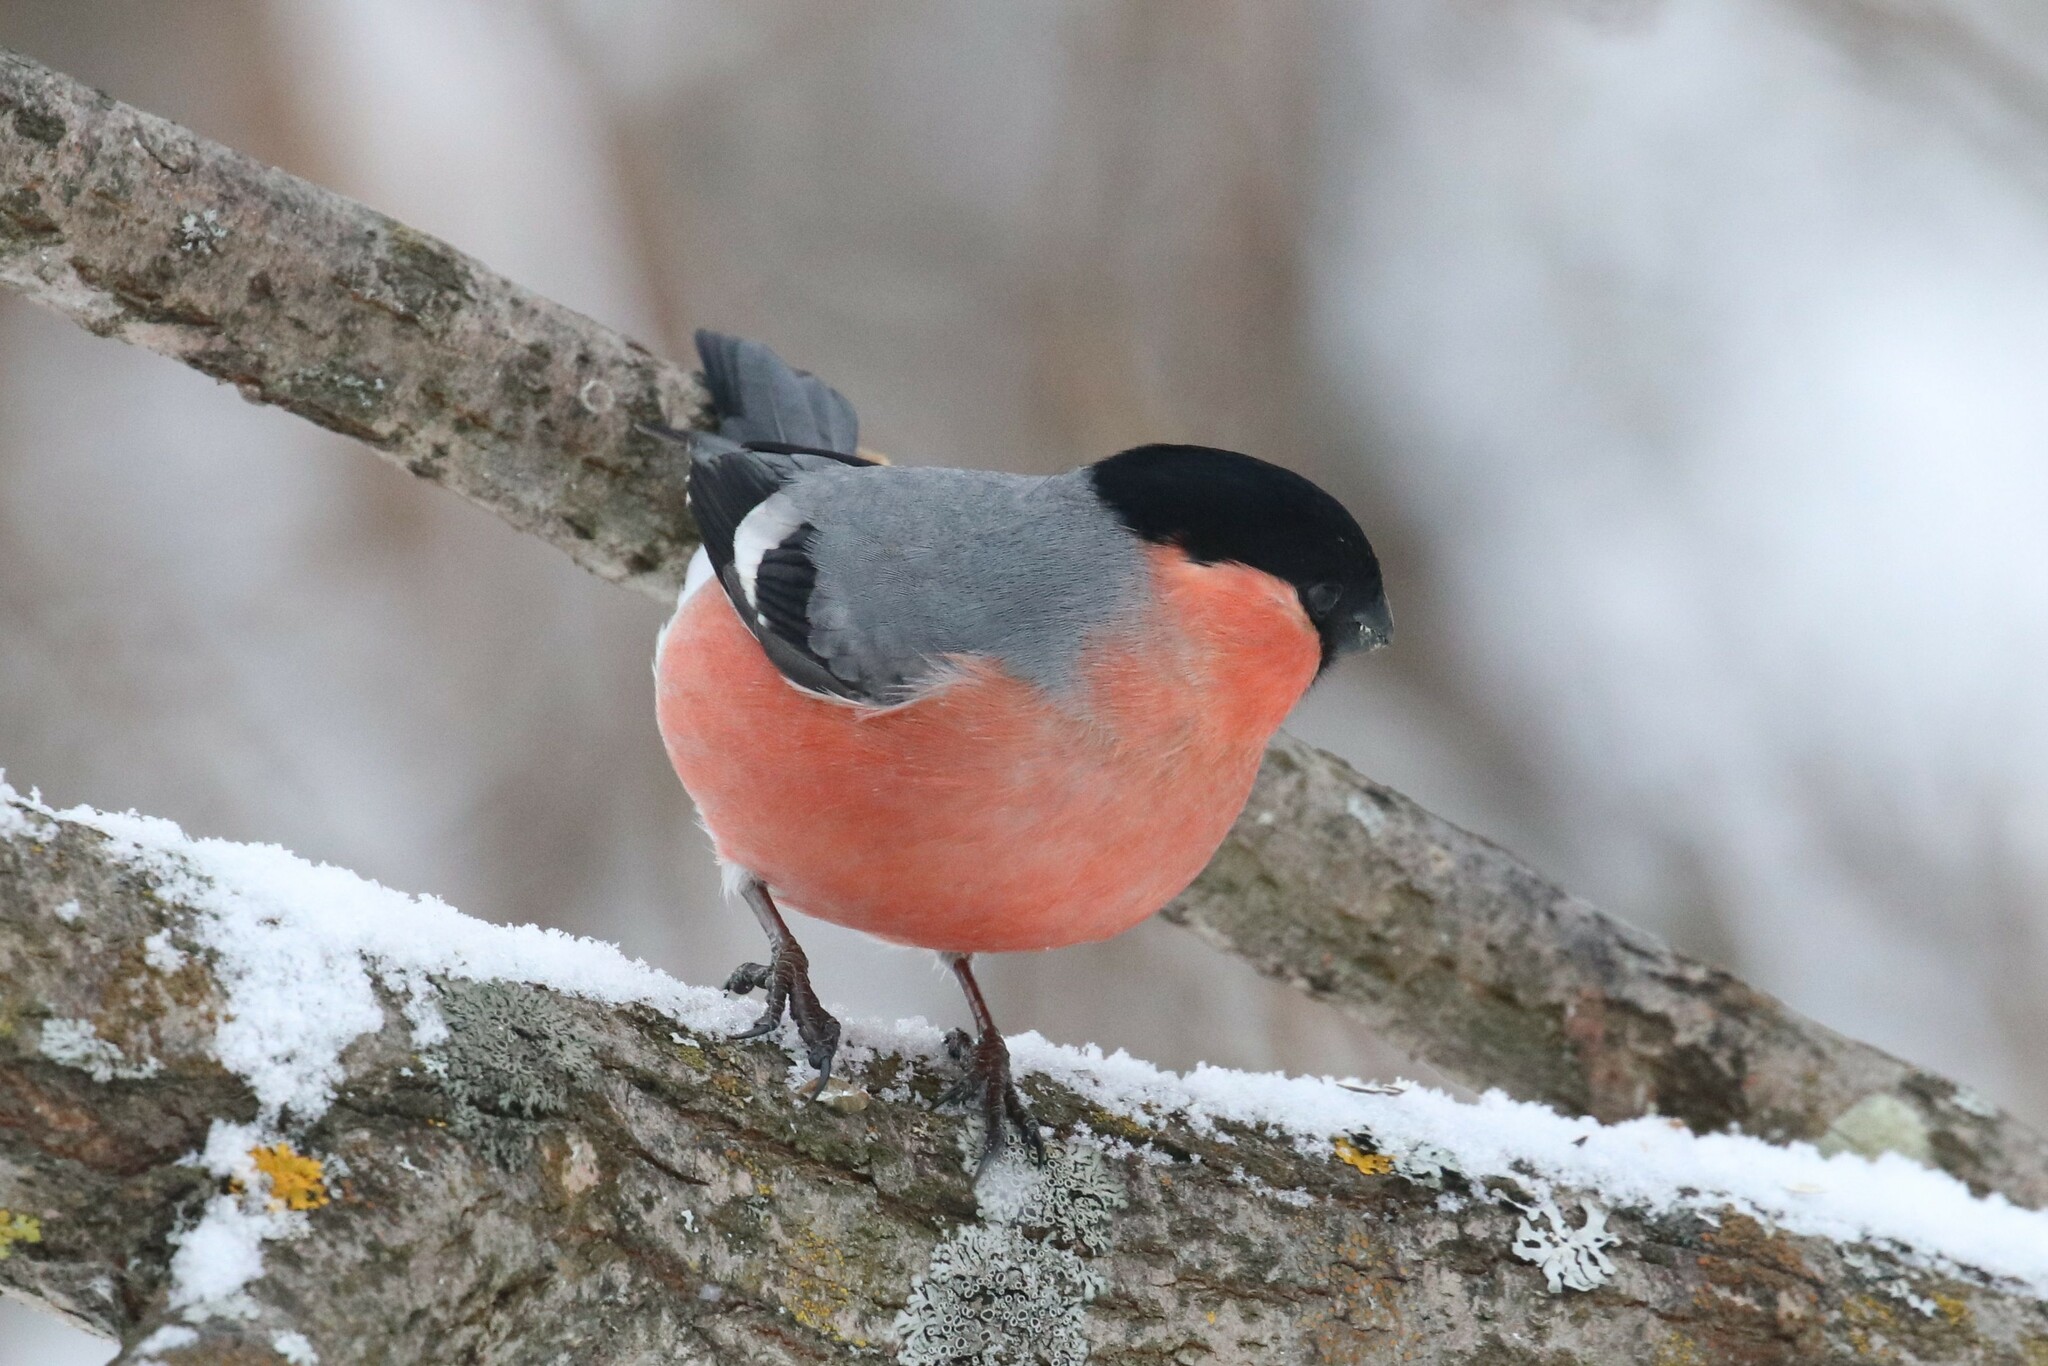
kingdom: Animalia
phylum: Chordata
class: Aves
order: Passeriformes
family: Fringillidae
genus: Pyrrhula
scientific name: Pyrrhula pyrrhula
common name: Eurasian bullfinch
